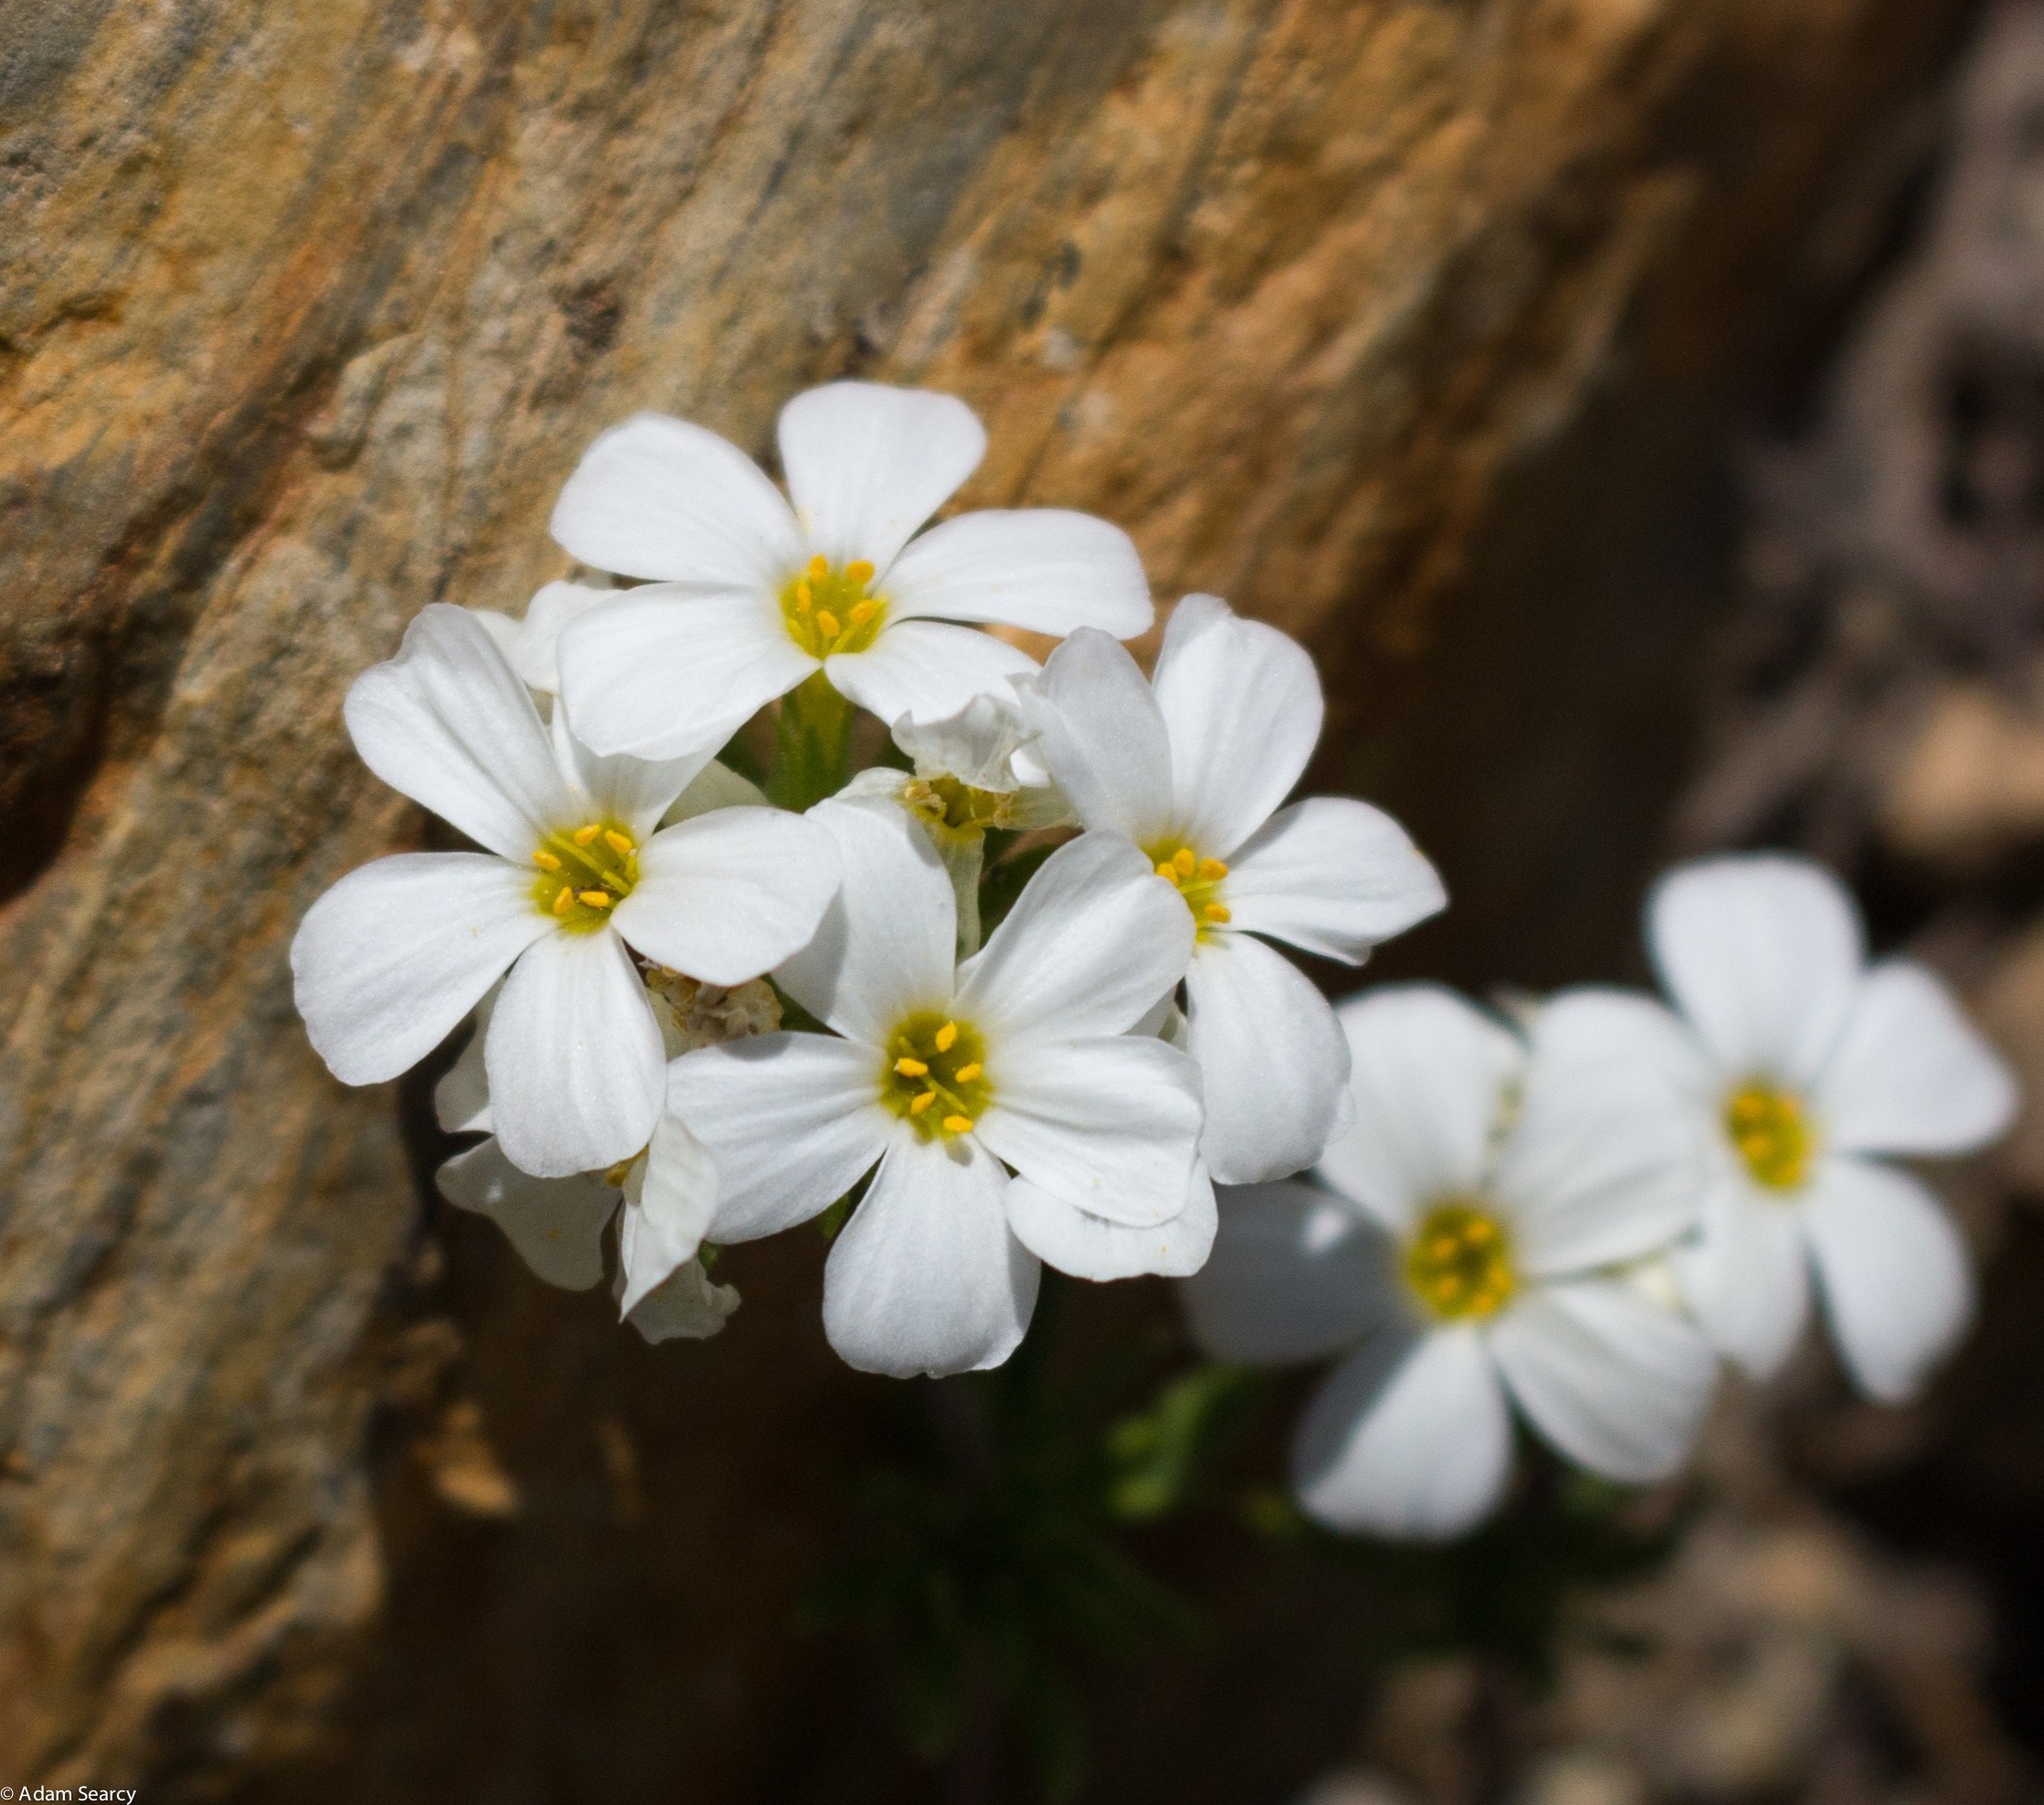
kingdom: Plantae
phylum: Tracheophyta
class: Magnoliopsida
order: Ericales
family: Polemoniaceae
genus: Leptosiphon
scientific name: Leptosiphon nuttallii
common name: Nuttall's linanthus
